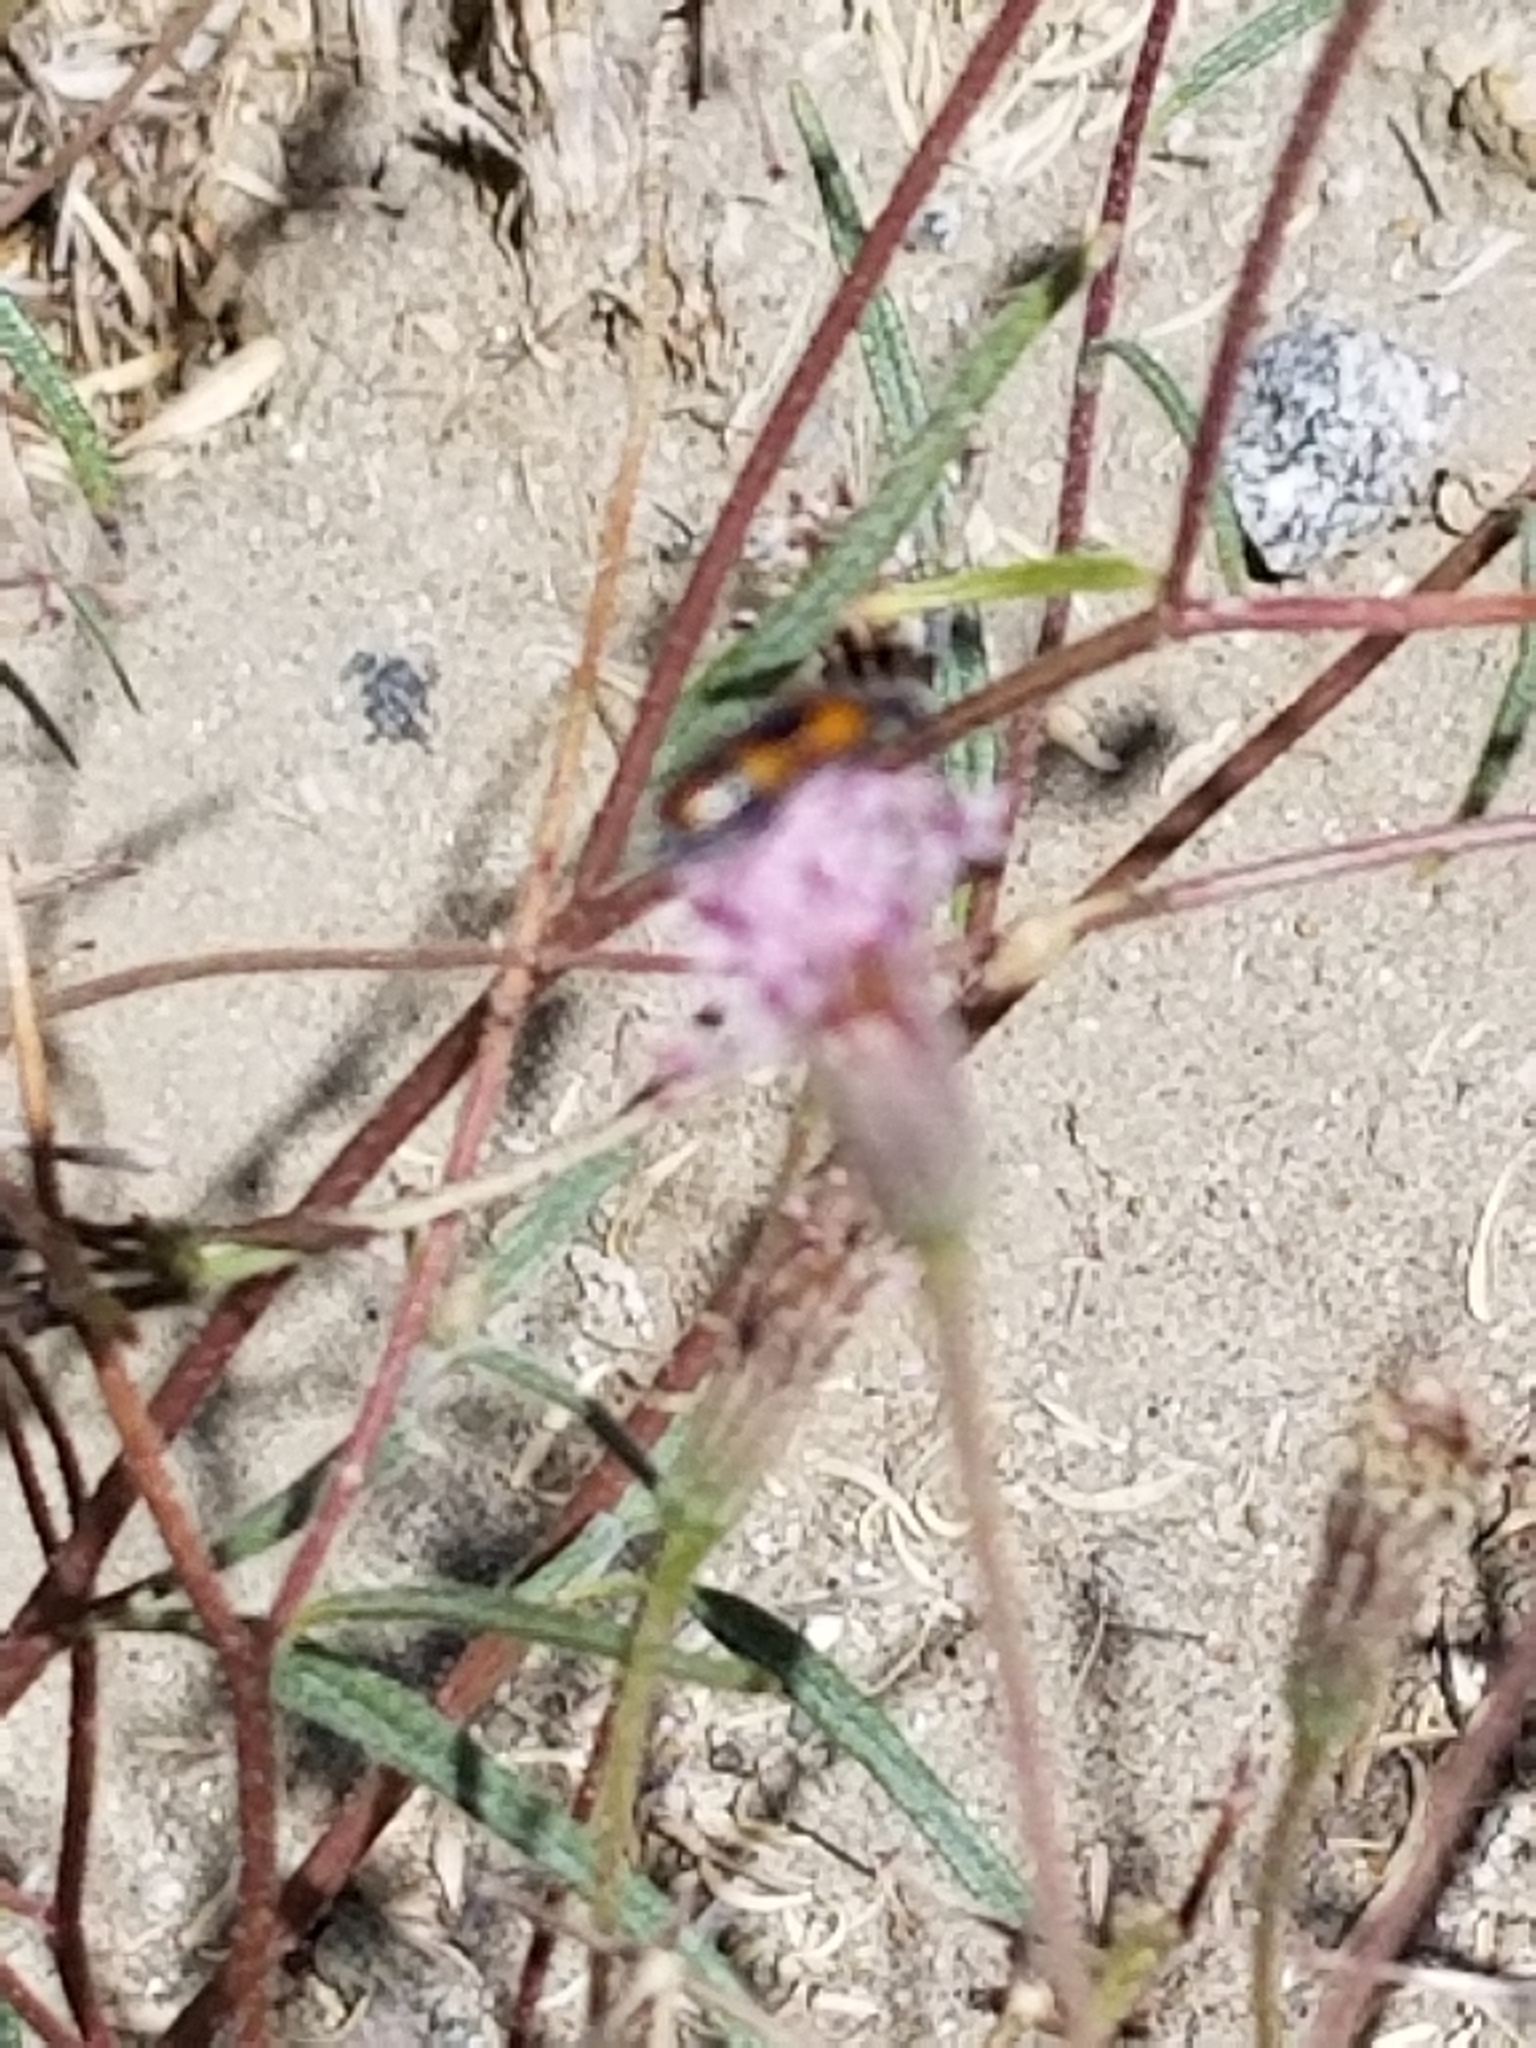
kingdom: Animalia
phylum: Arthropoda
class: Insecta
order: Coleoptera
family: Meloidae
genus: Eupompha
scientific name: Eupompha elegans
